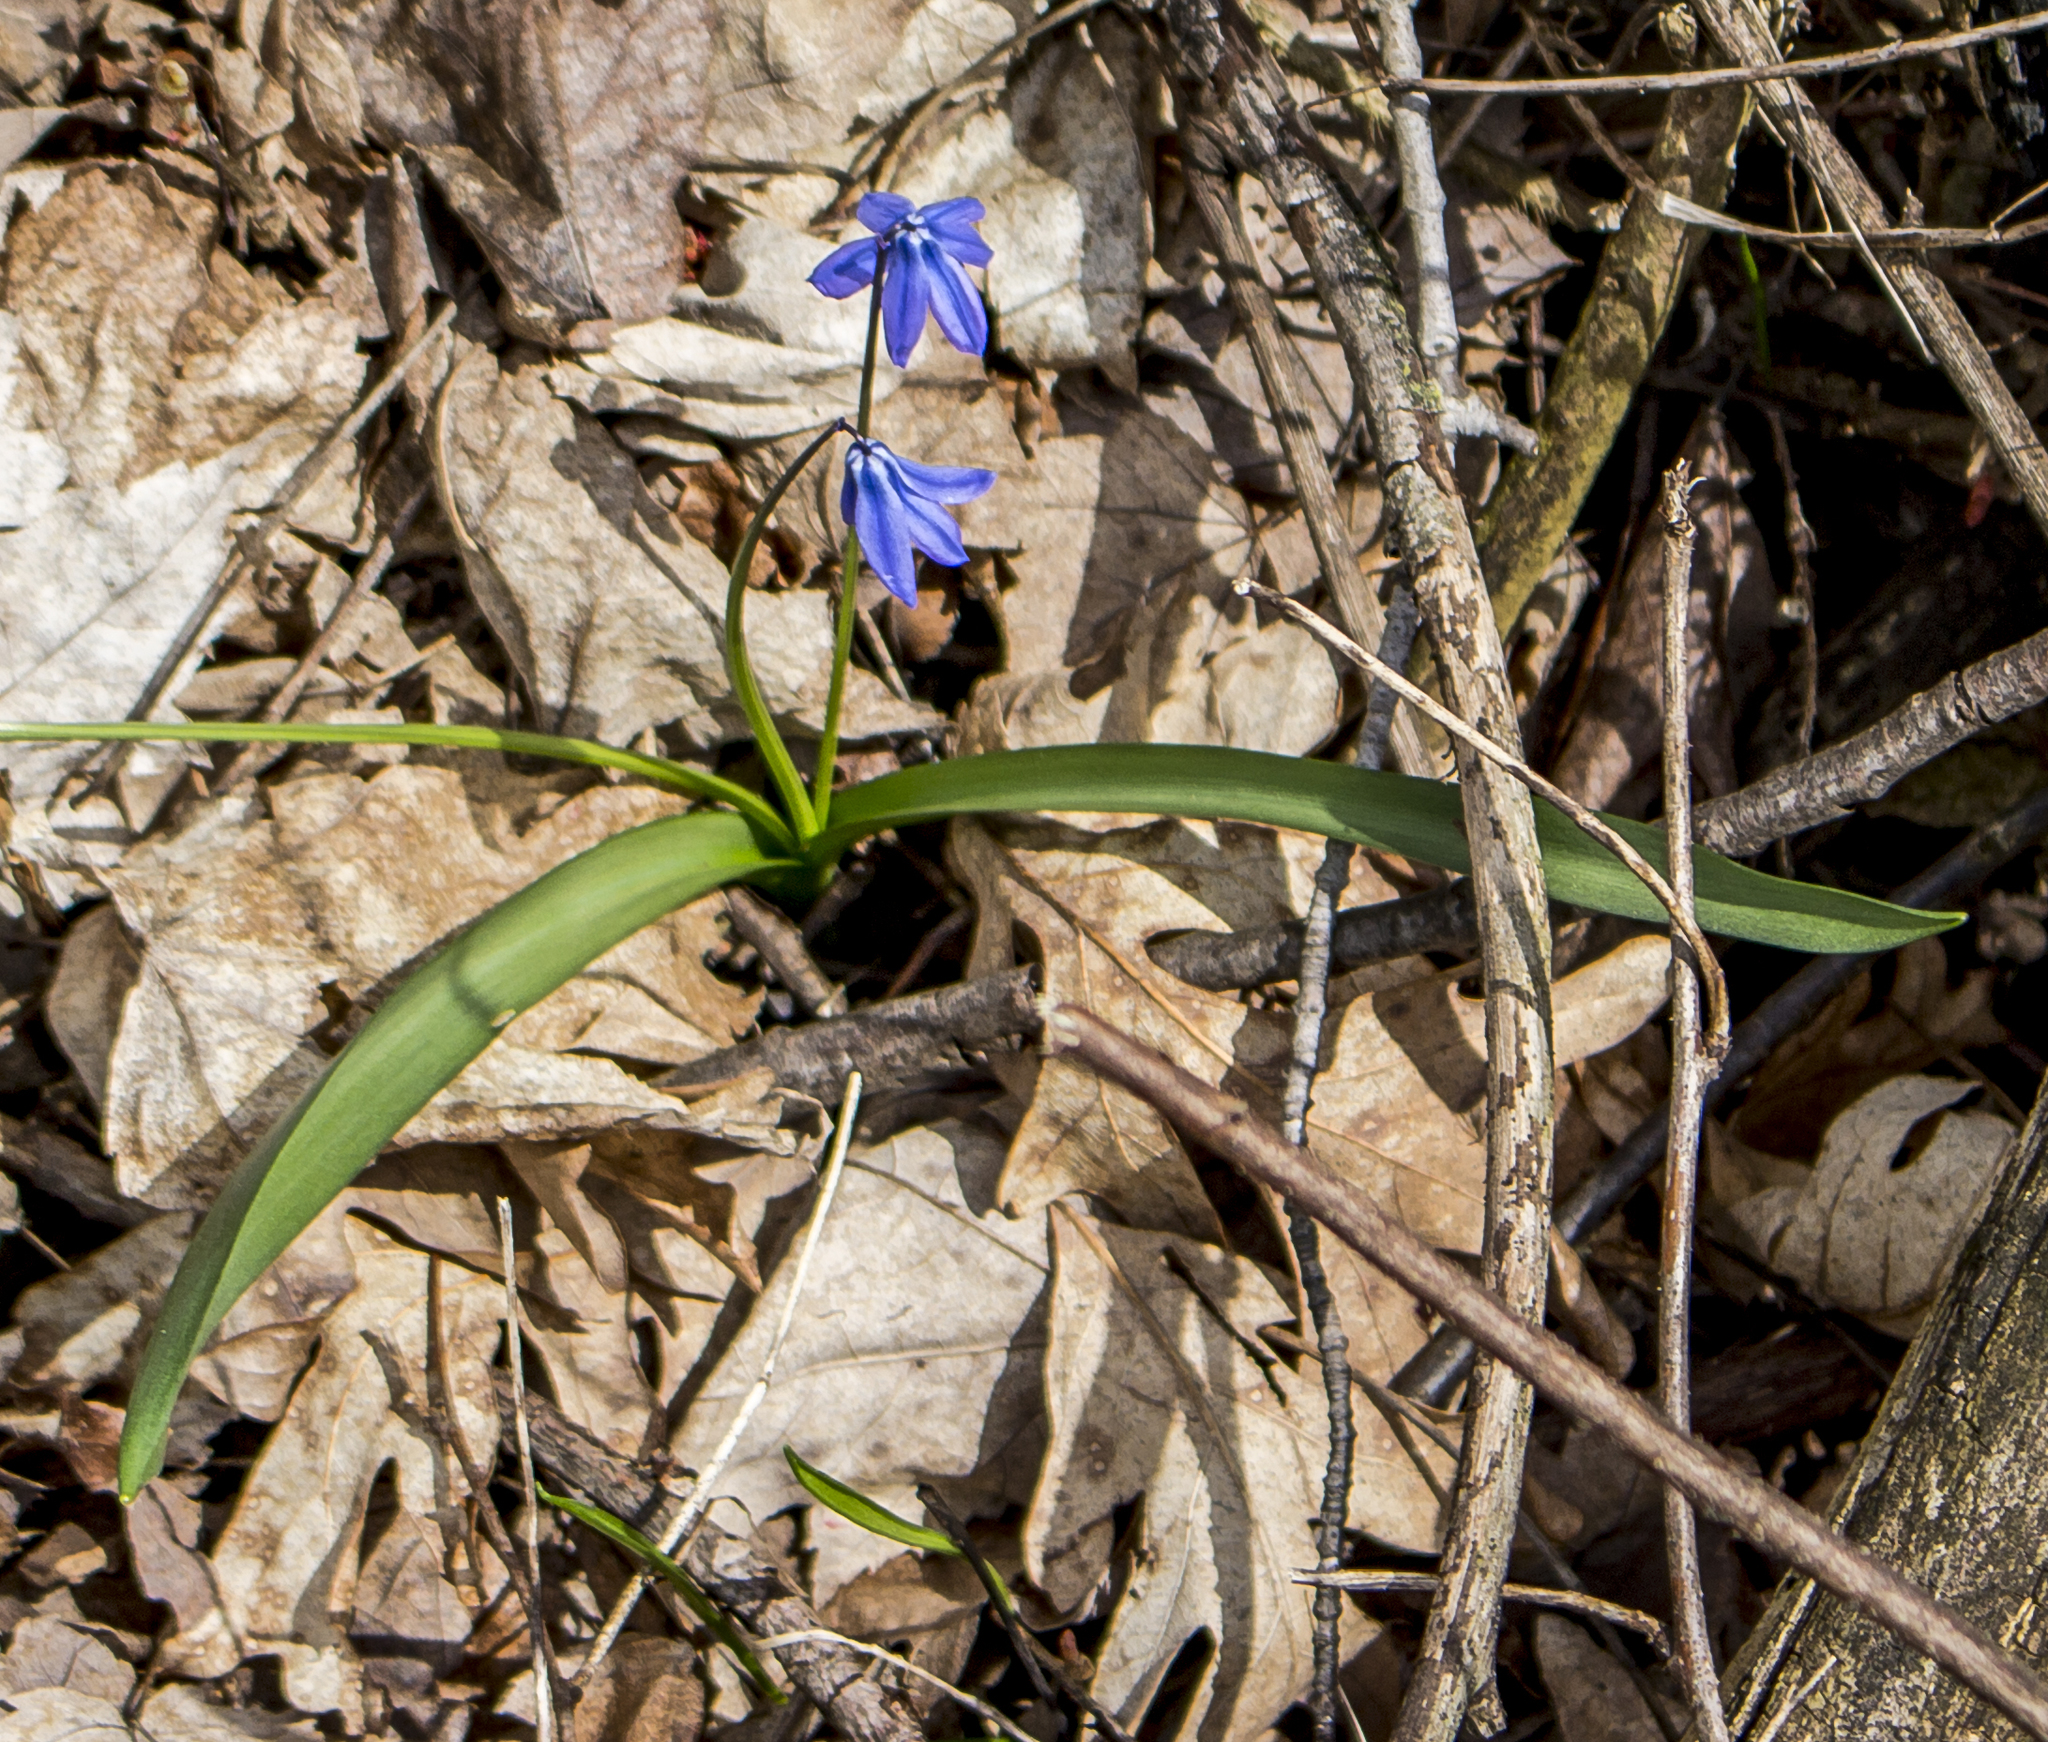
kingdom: Plantae
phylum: Tracheophyta
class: Liliopsida
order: Asparagales
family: Asparagaceae
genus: Scilla
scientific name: Scilla siberica
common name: Siberian squill
